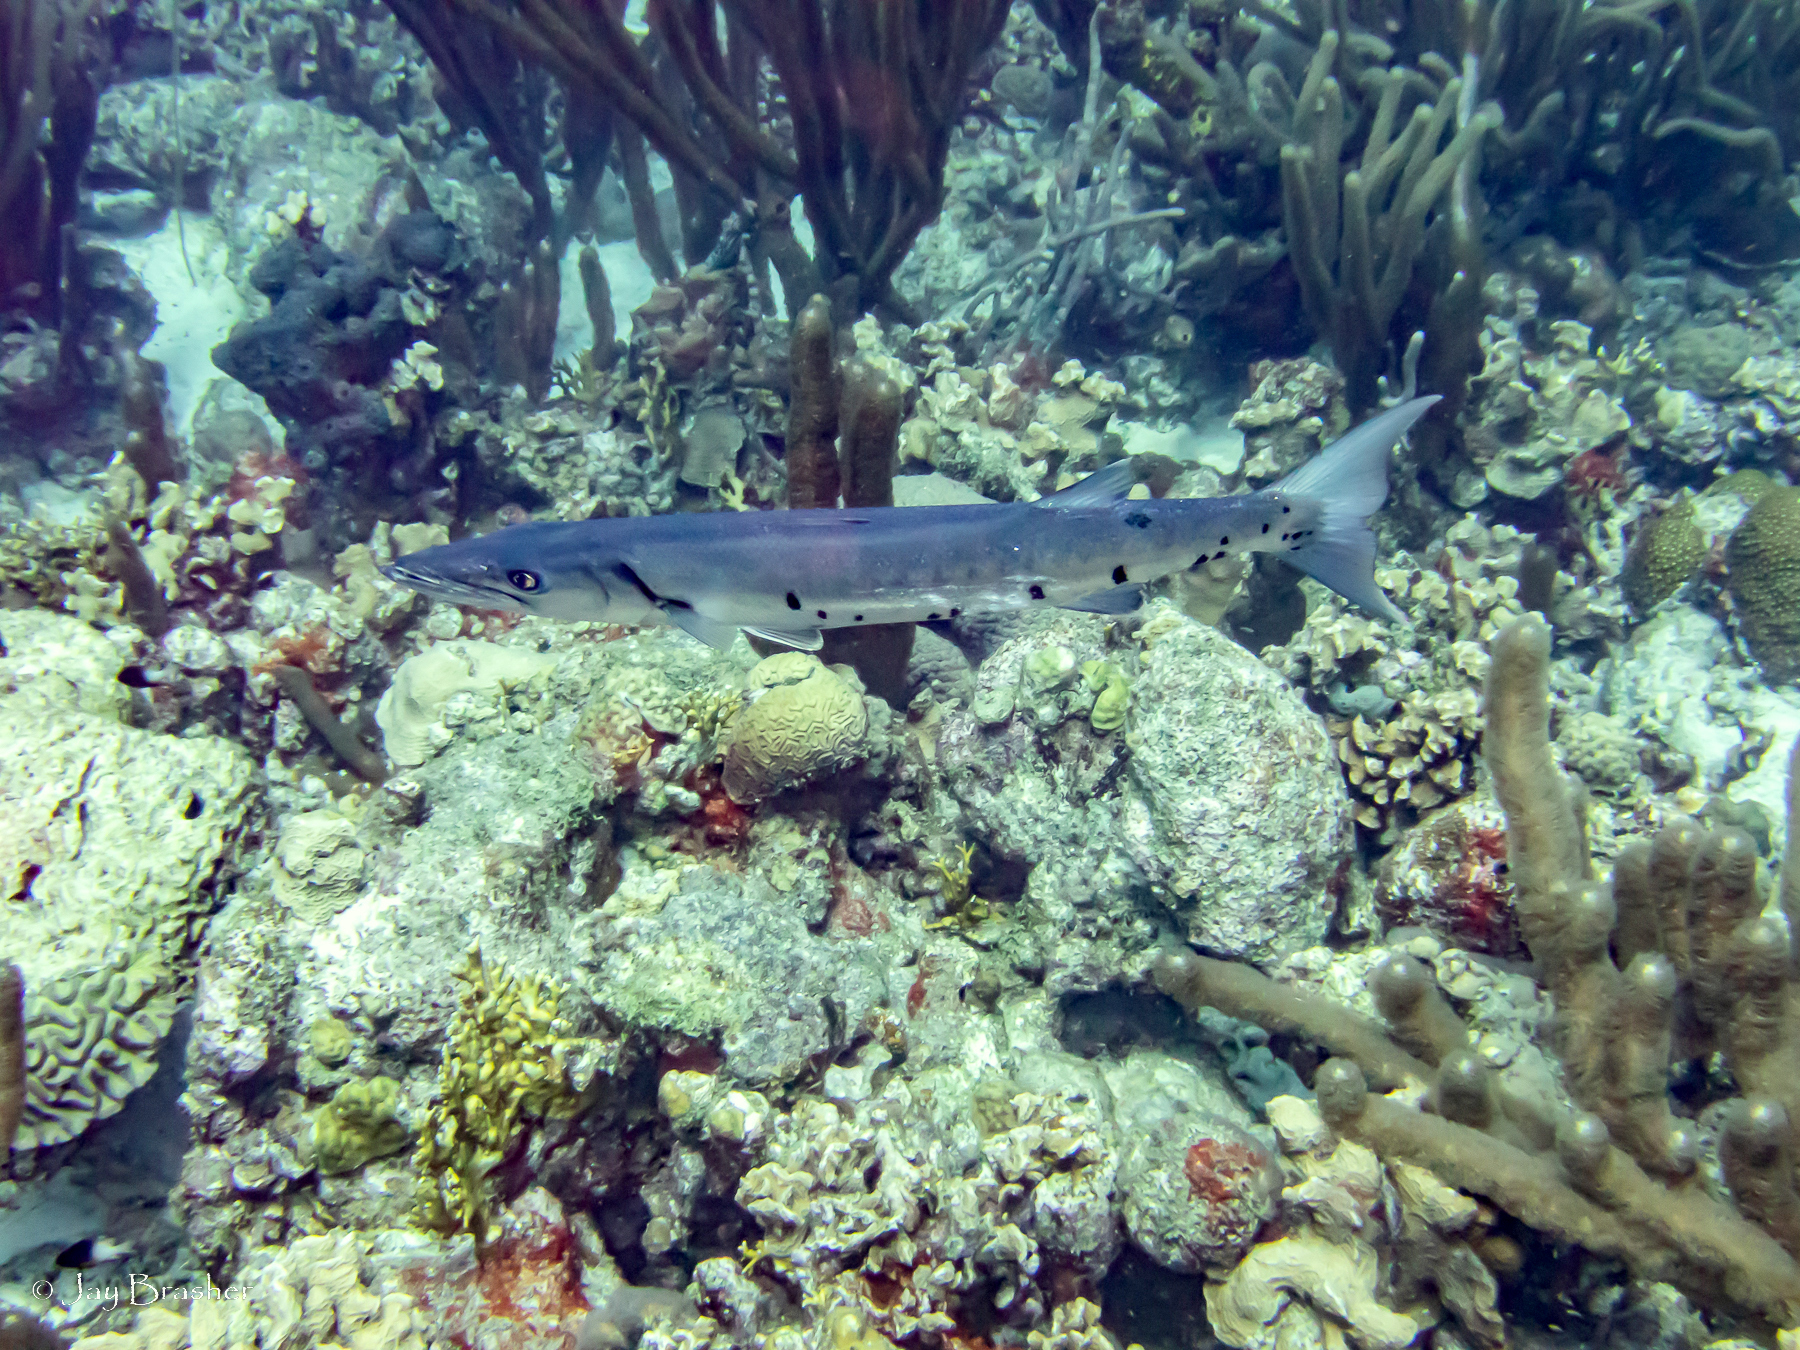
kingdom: Animalia
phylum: Chordata
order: Perciformes
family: Sphyraenidae
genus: Sphyraena
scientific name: Sphyraena barracuda
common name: Great barracuda
